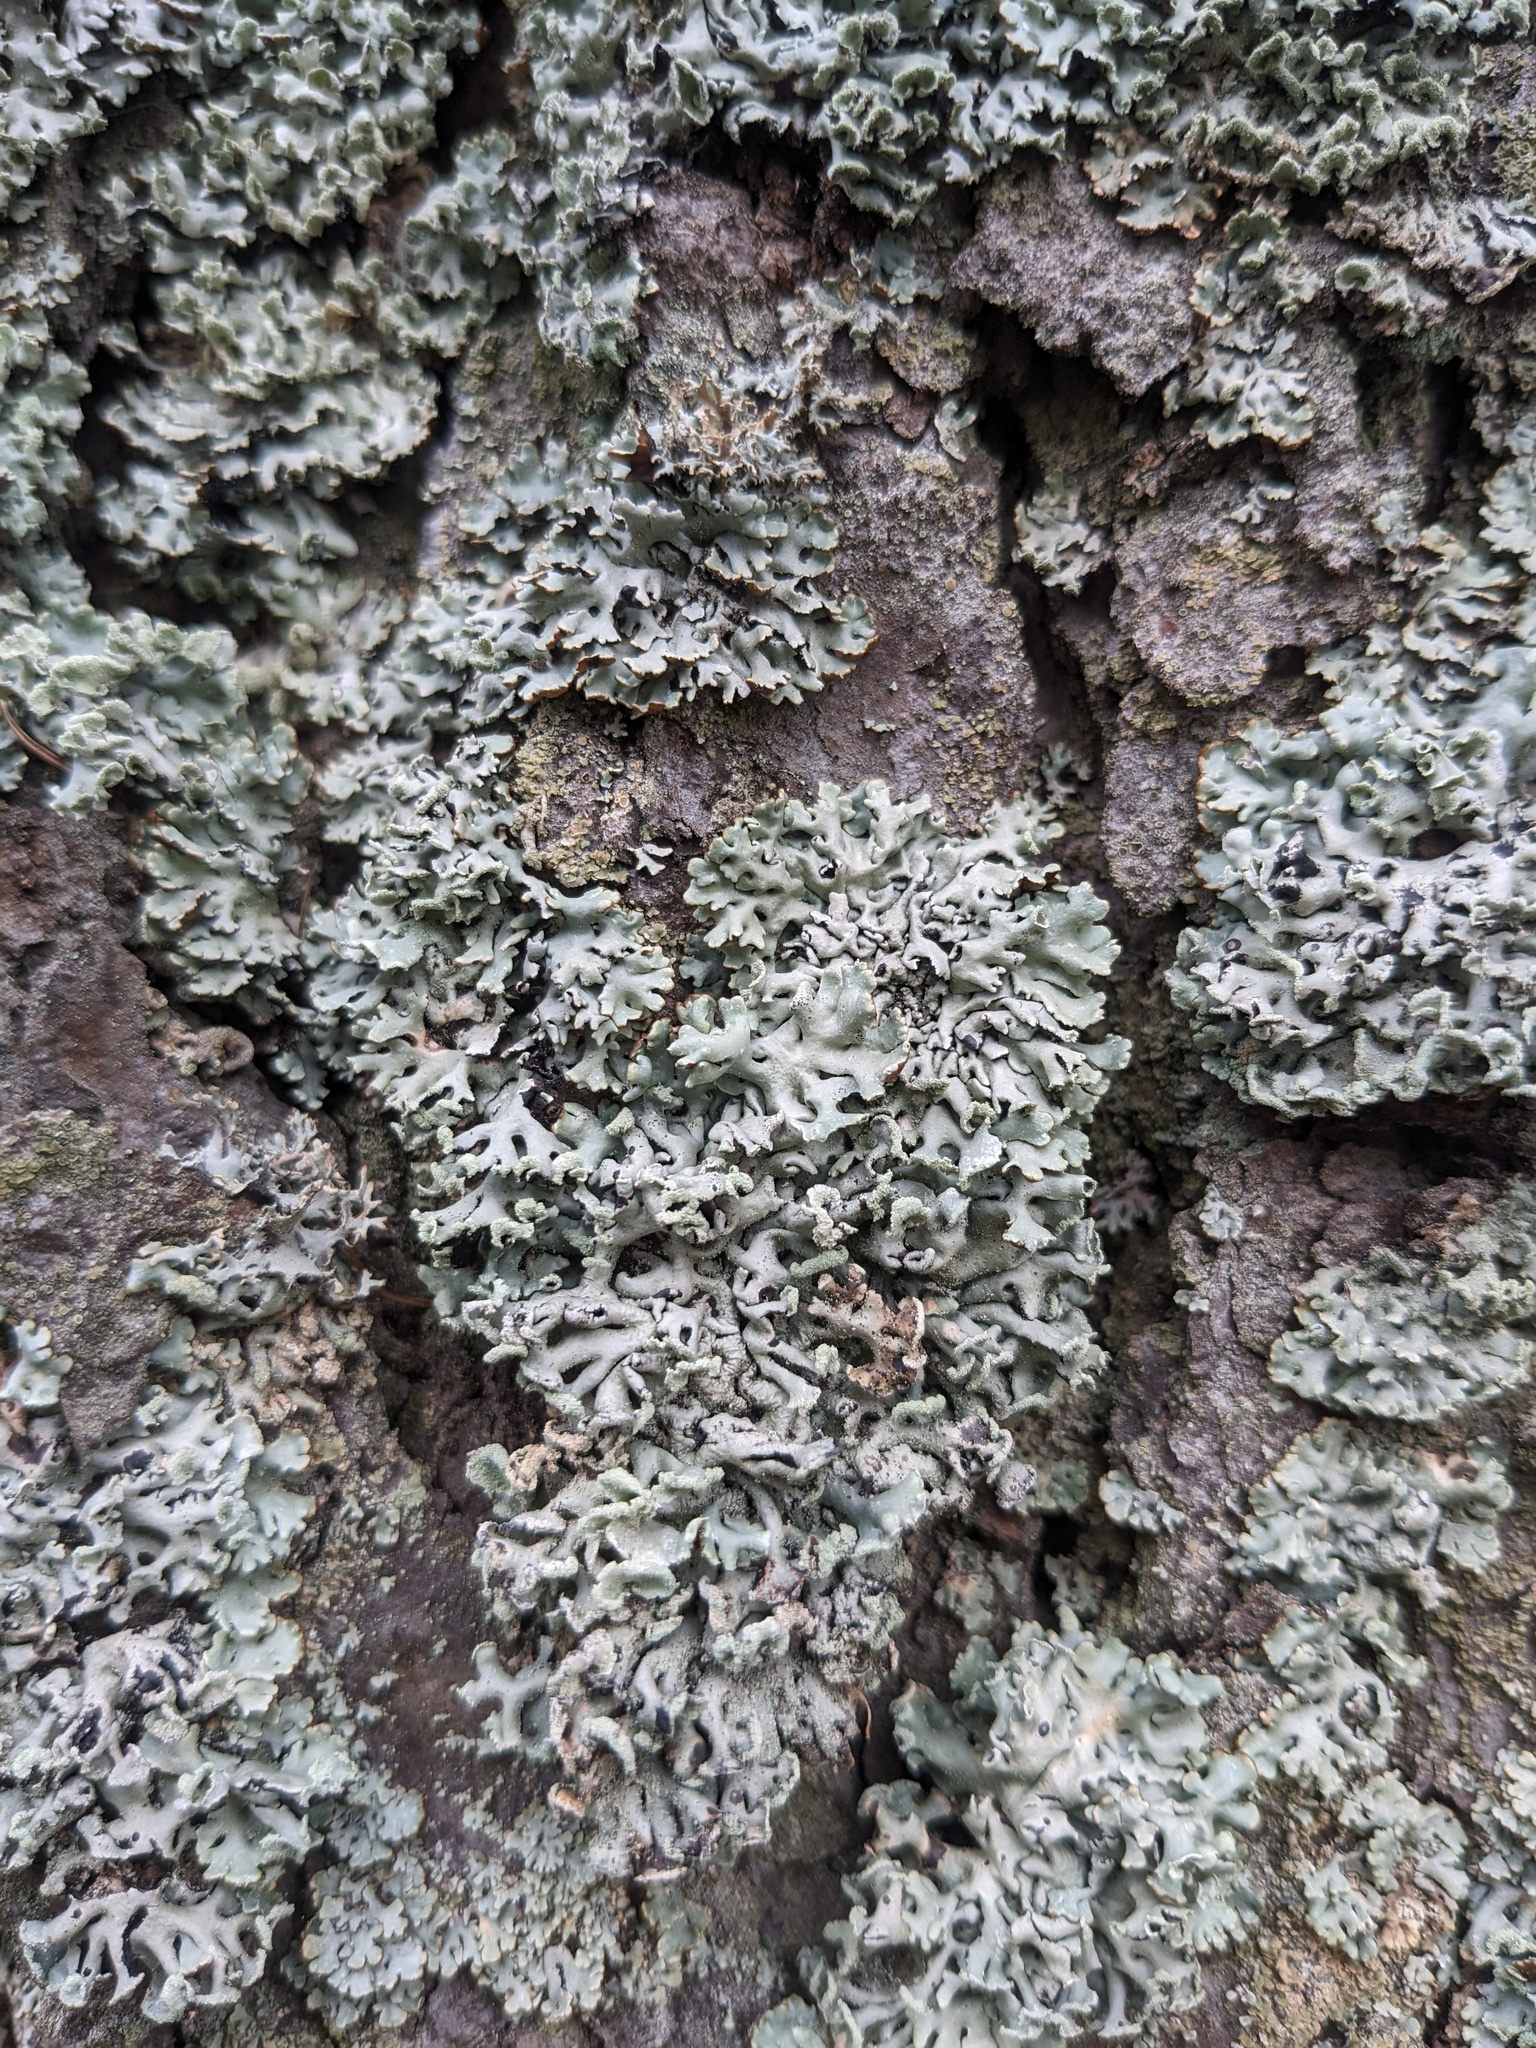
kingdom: Fungi
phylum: Ascomycota
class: Lecanoromycetes
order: Lecanorales
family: Parmeliaceae
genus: Hypogymnia
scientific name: Hypogymnia physodes
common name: Dark crottle
